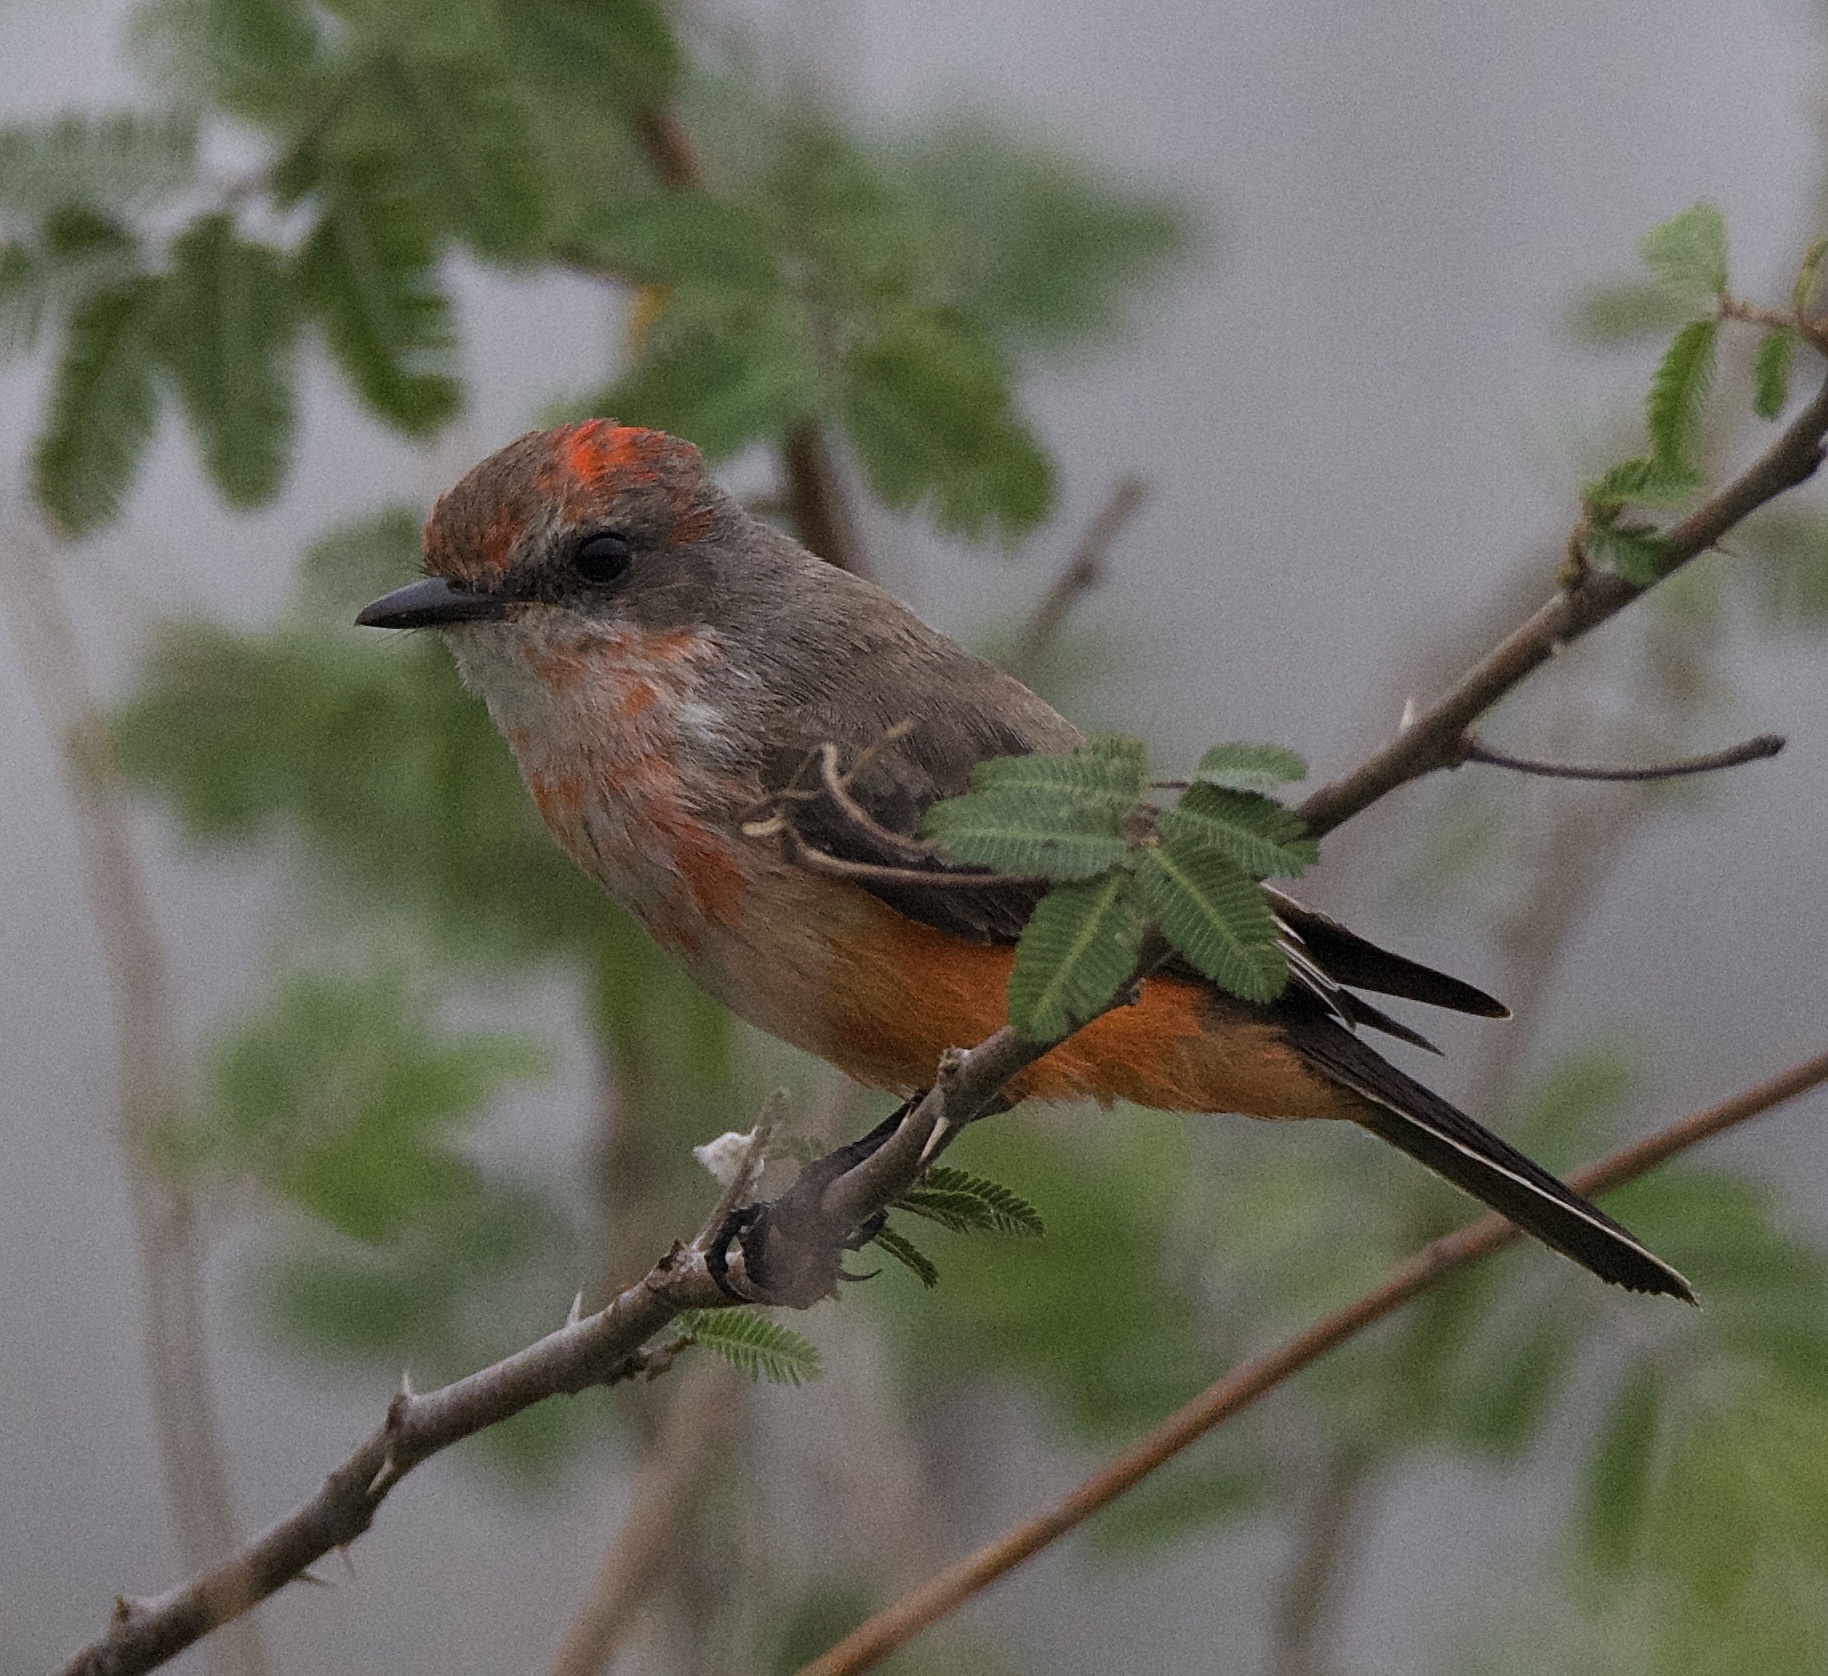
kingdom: Animalia
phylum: Chordata
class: Aves
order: Passeriformes
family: Tyrannidae
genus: Pyrocephalus
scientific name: Pyrocephalus rubinus
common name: Vermilion flycatcher
